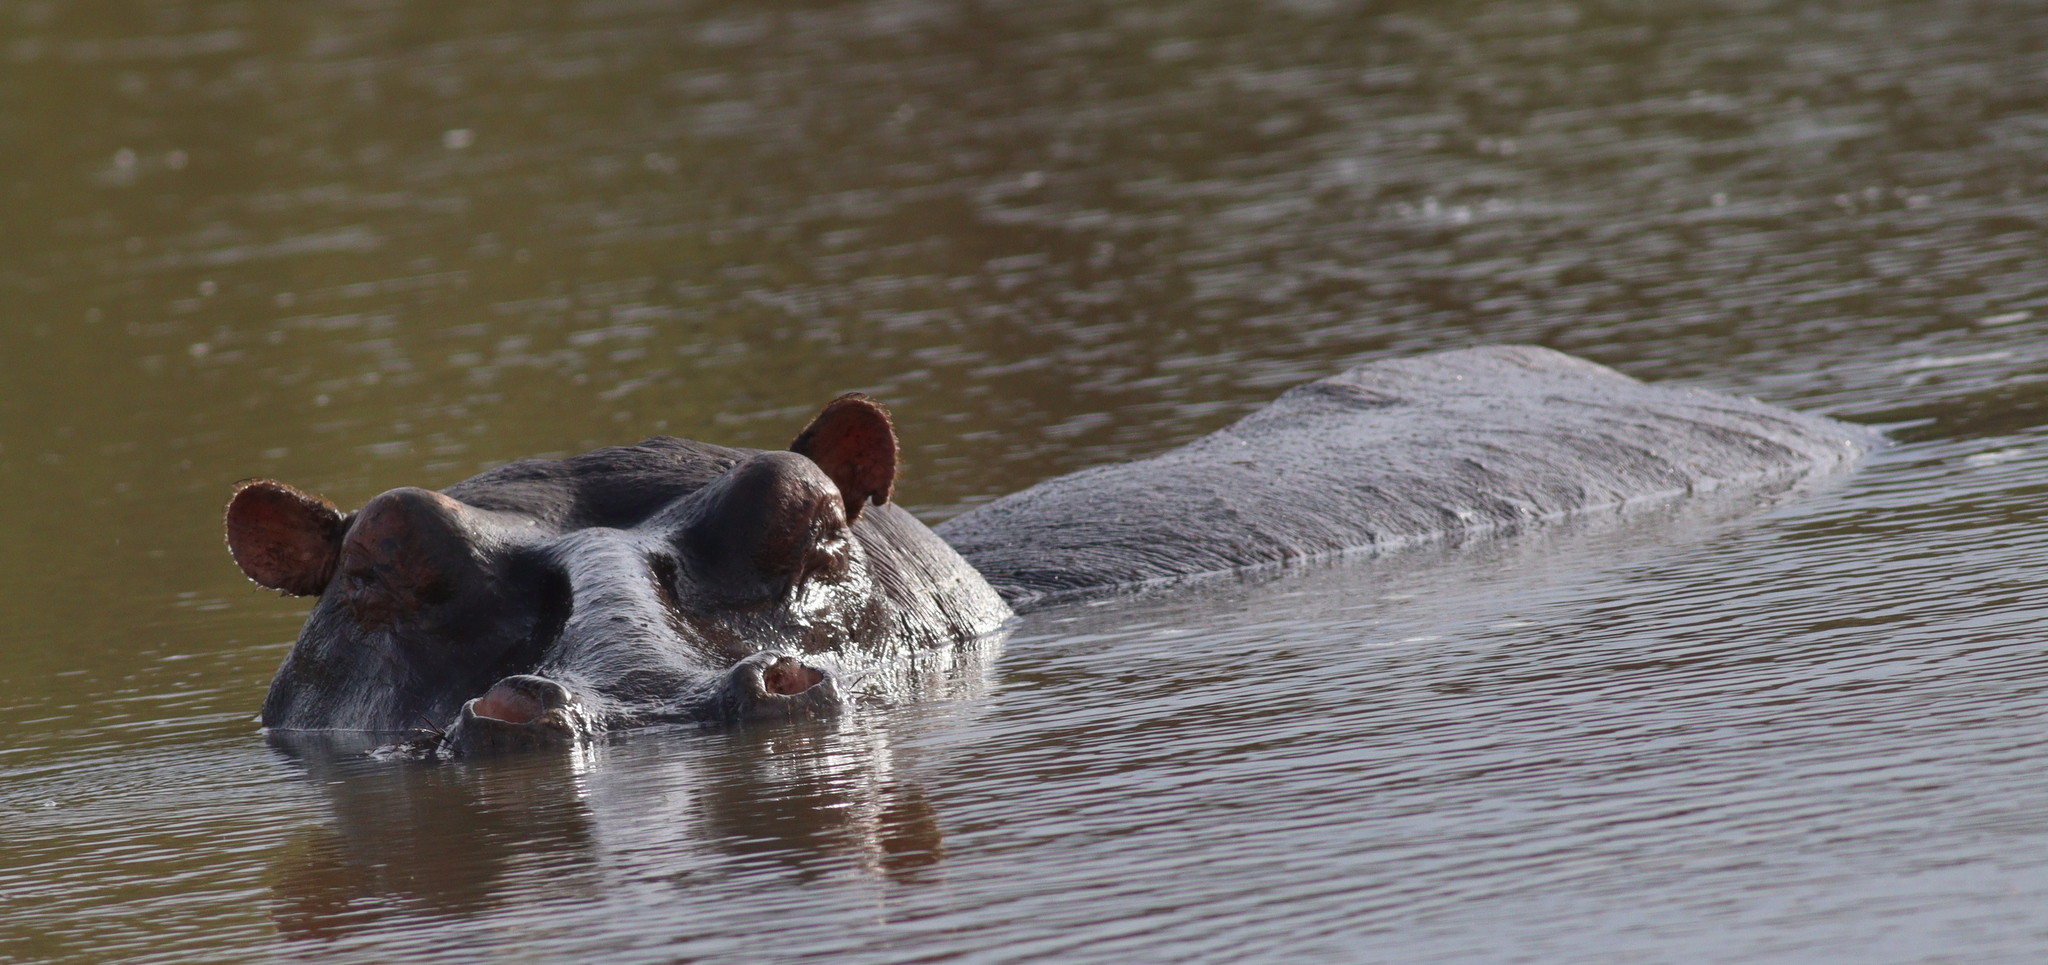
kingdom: Animalia
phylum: Chordata
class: Mammalia
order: Artiodactyla
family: Hippopotamidae
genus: Hippopotamus
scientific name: Hippopotamus amphibius
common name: Common hippopotamus
